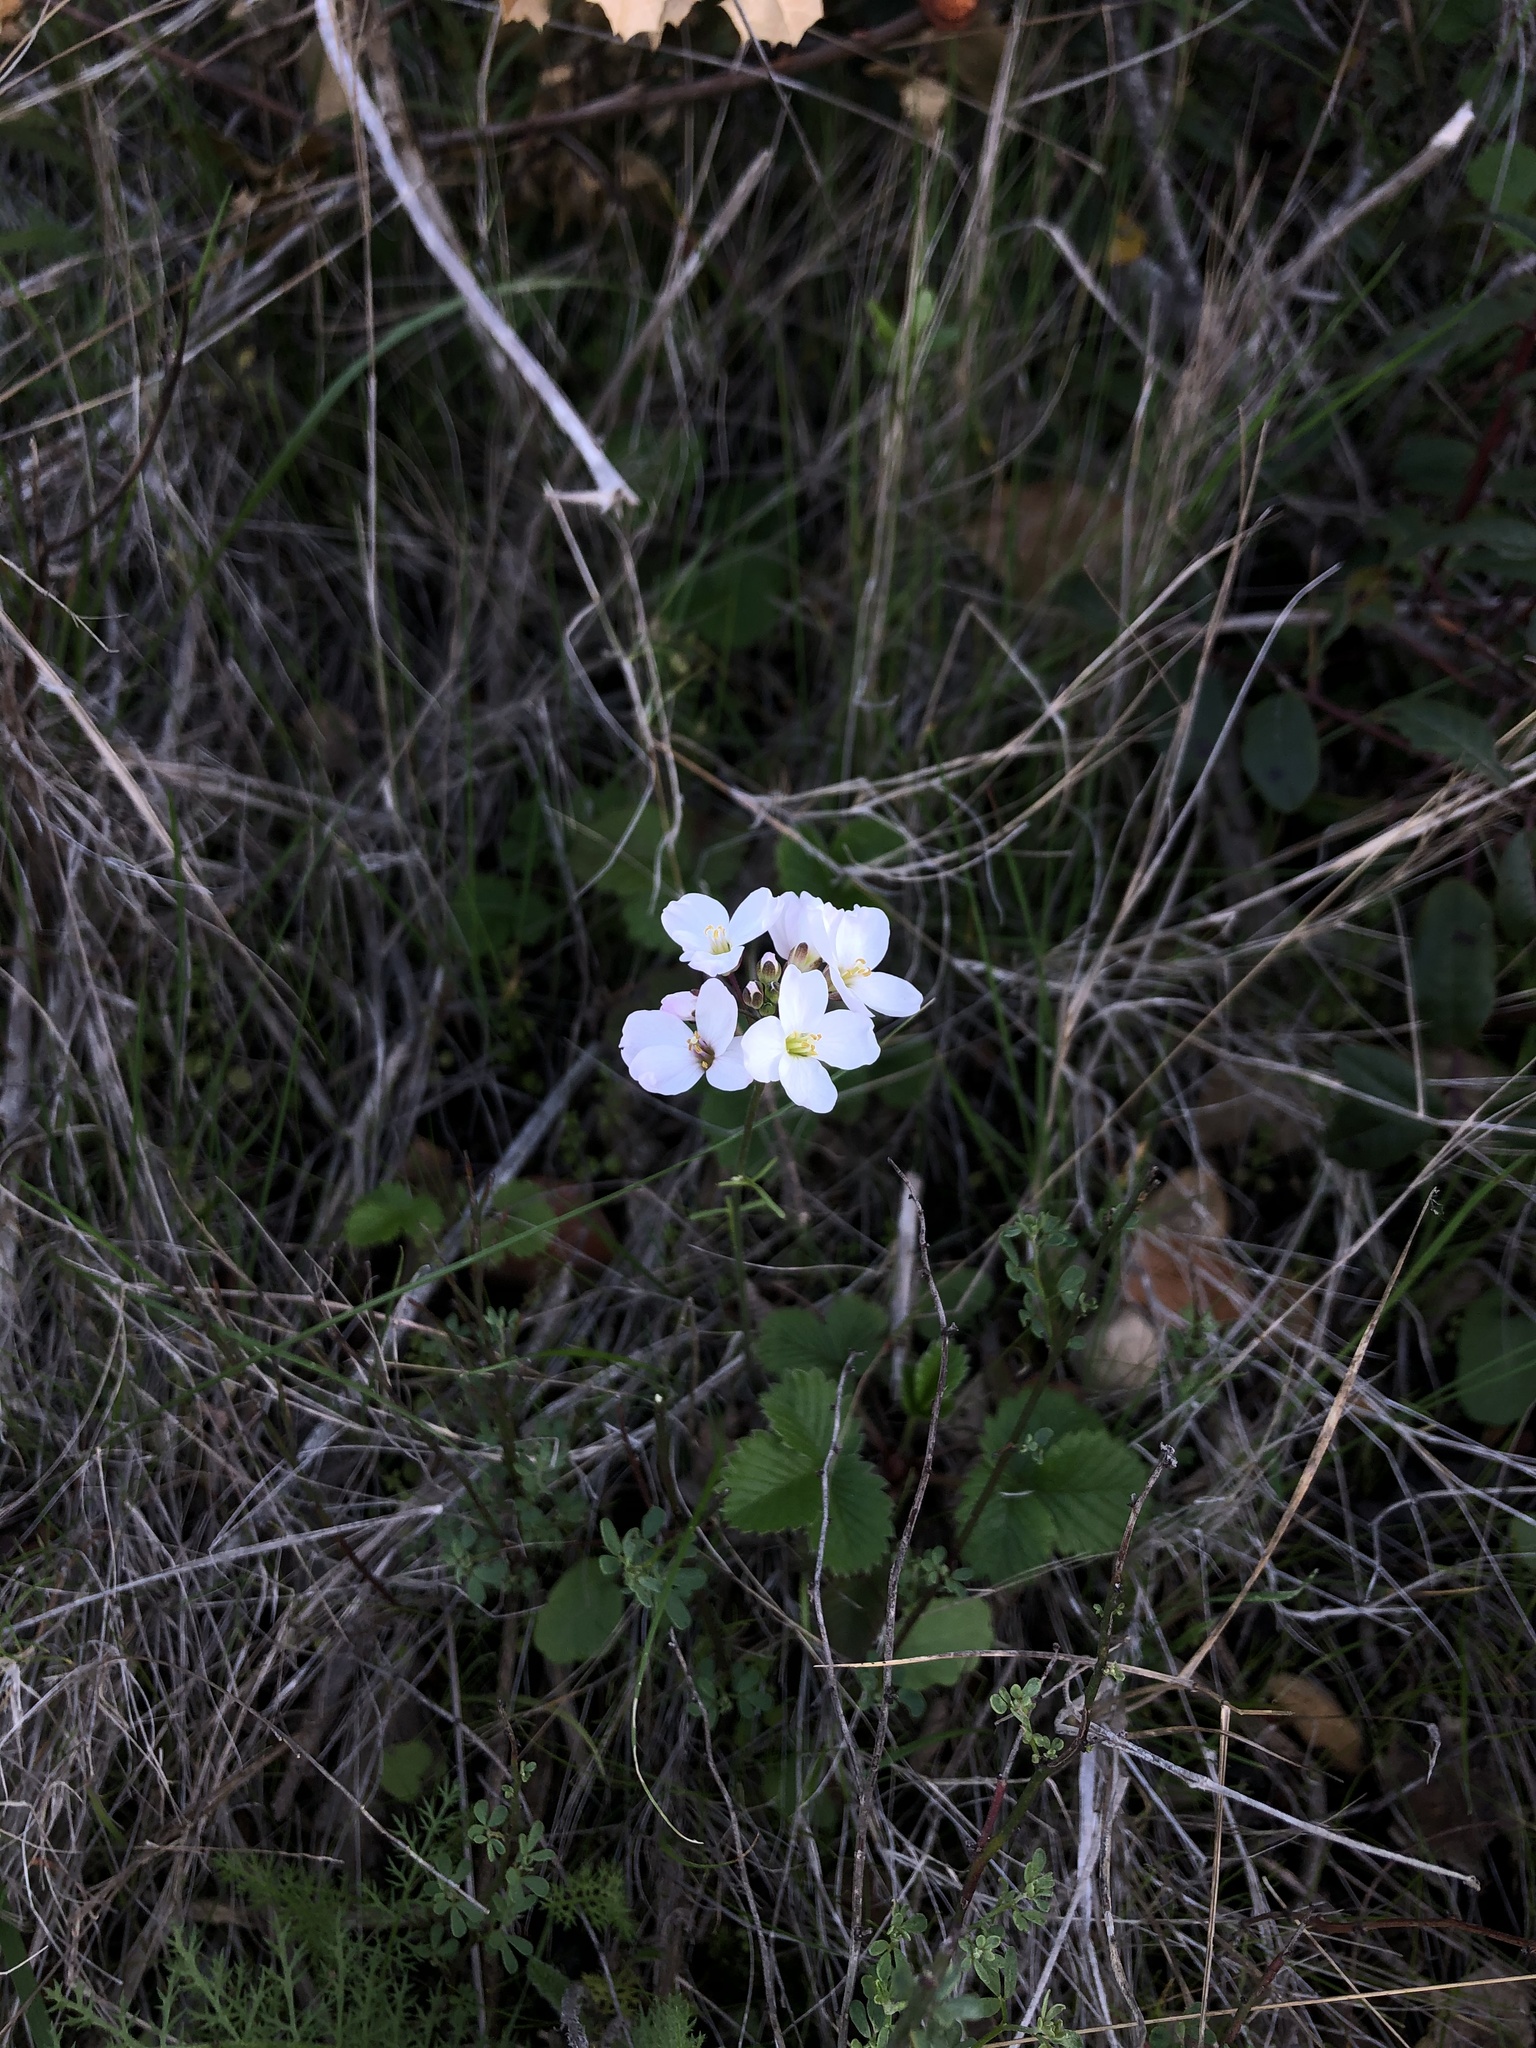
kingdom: Plantae
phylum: Tracheophyta
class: Magnoliopsida
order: Brassicales
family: Brassicaceae
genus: Cardamine
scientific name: Cardamine californica
